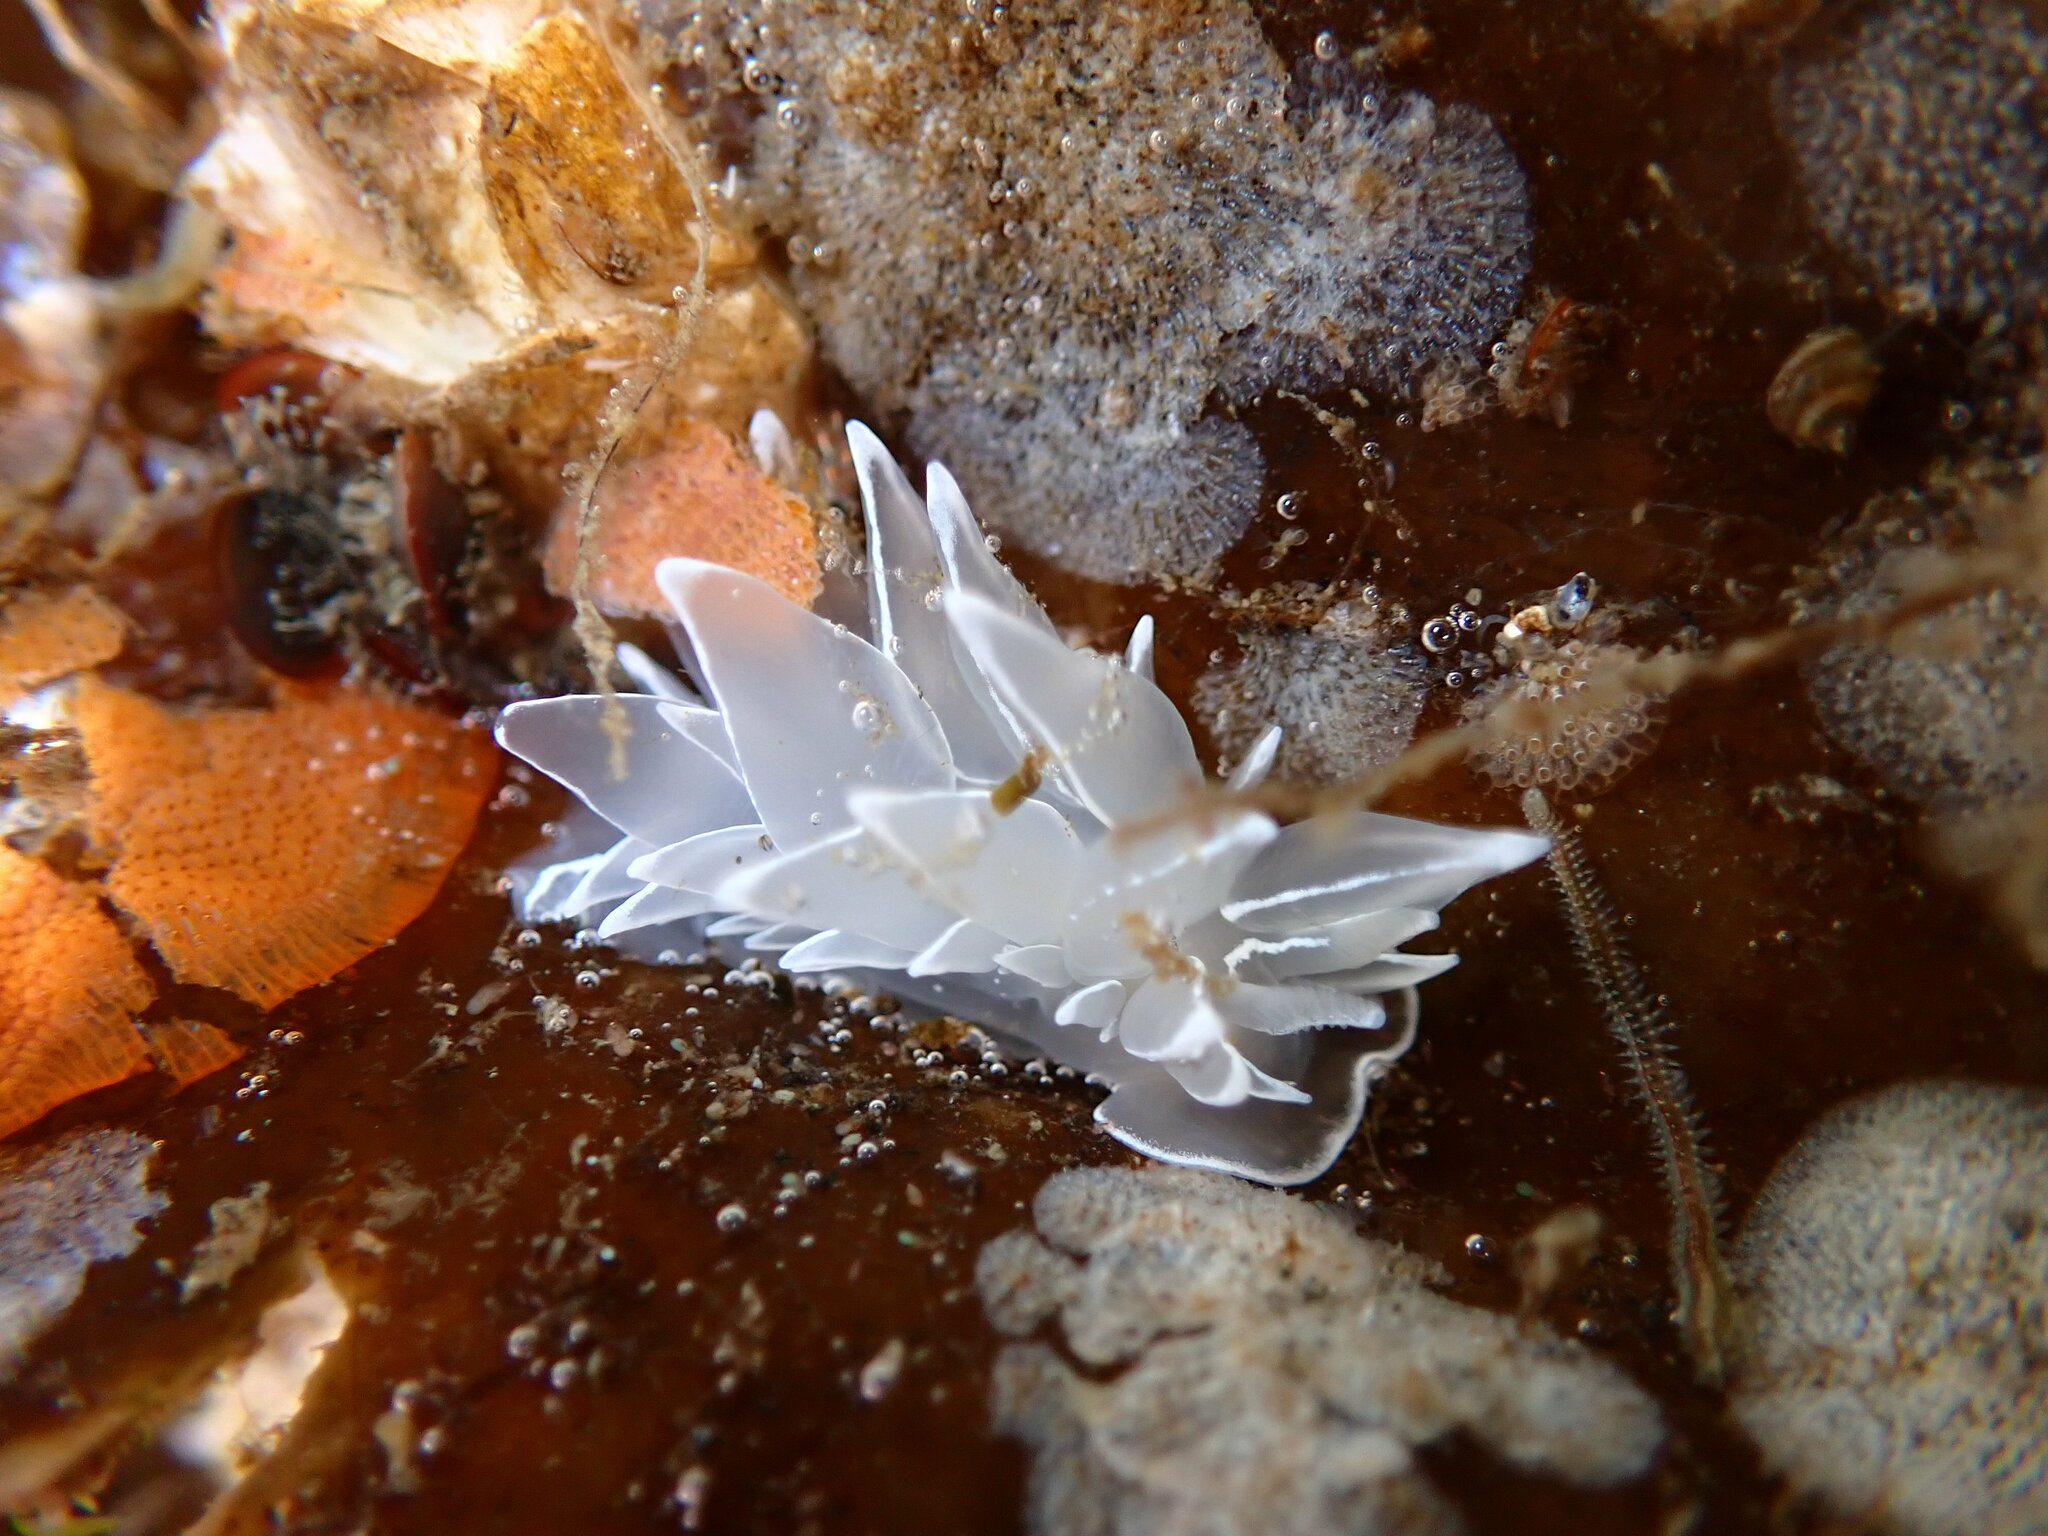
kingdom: Animalia
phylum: Mollusca
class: Gastropoda
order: Nudibranchia
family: Dironidae
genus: Dirona
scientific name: Dirona albolineata
